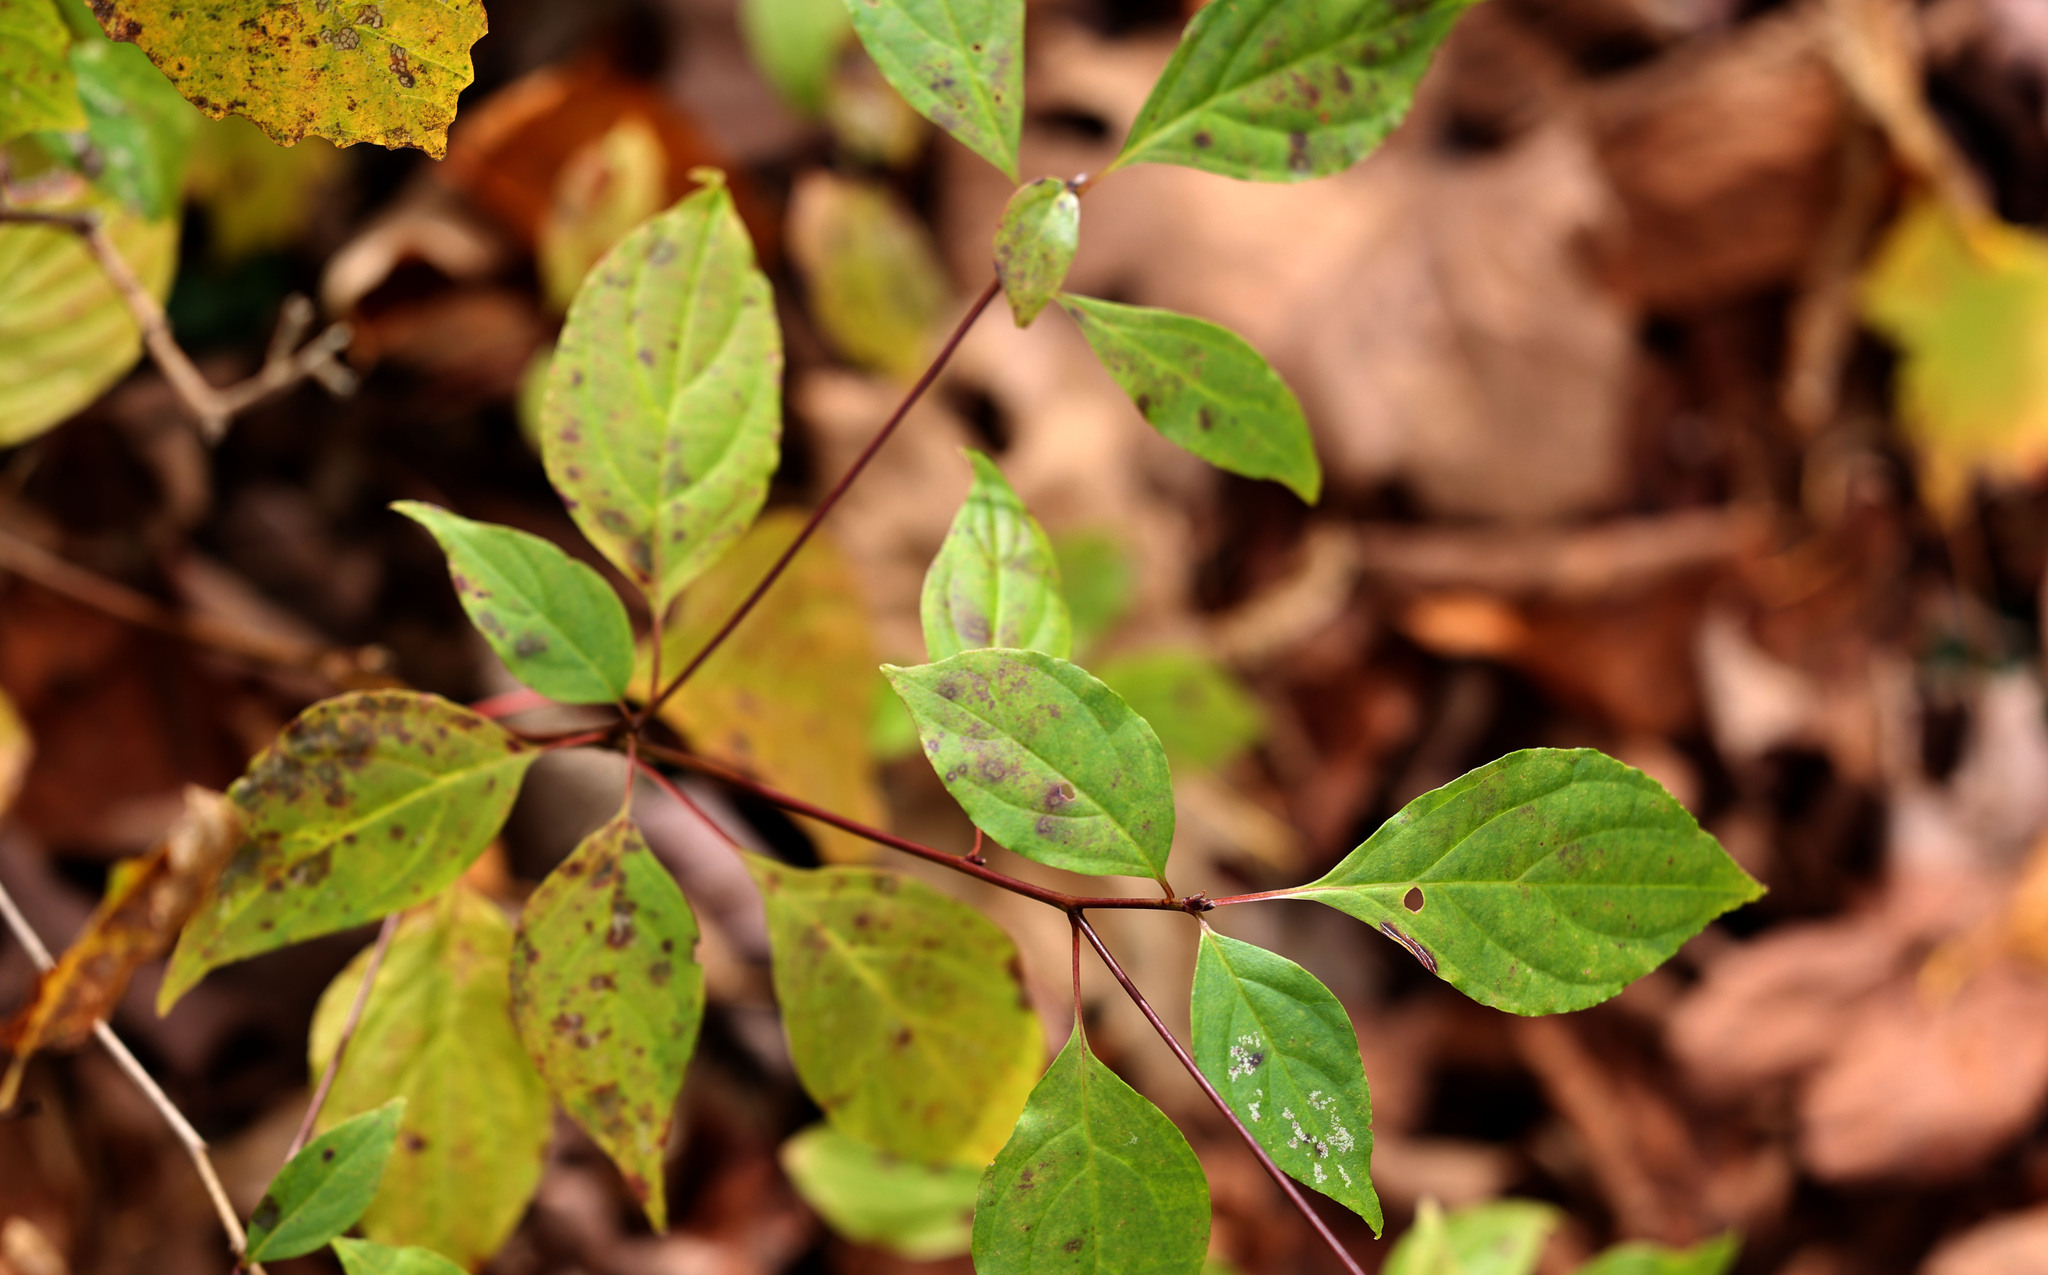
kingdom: Plantae
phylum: Tracheophyta
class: Magnoliopsida
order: Cornales
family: Cornaceae
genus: Cornus
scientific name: Cornus alternifolia
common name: Pagoda dogwood
